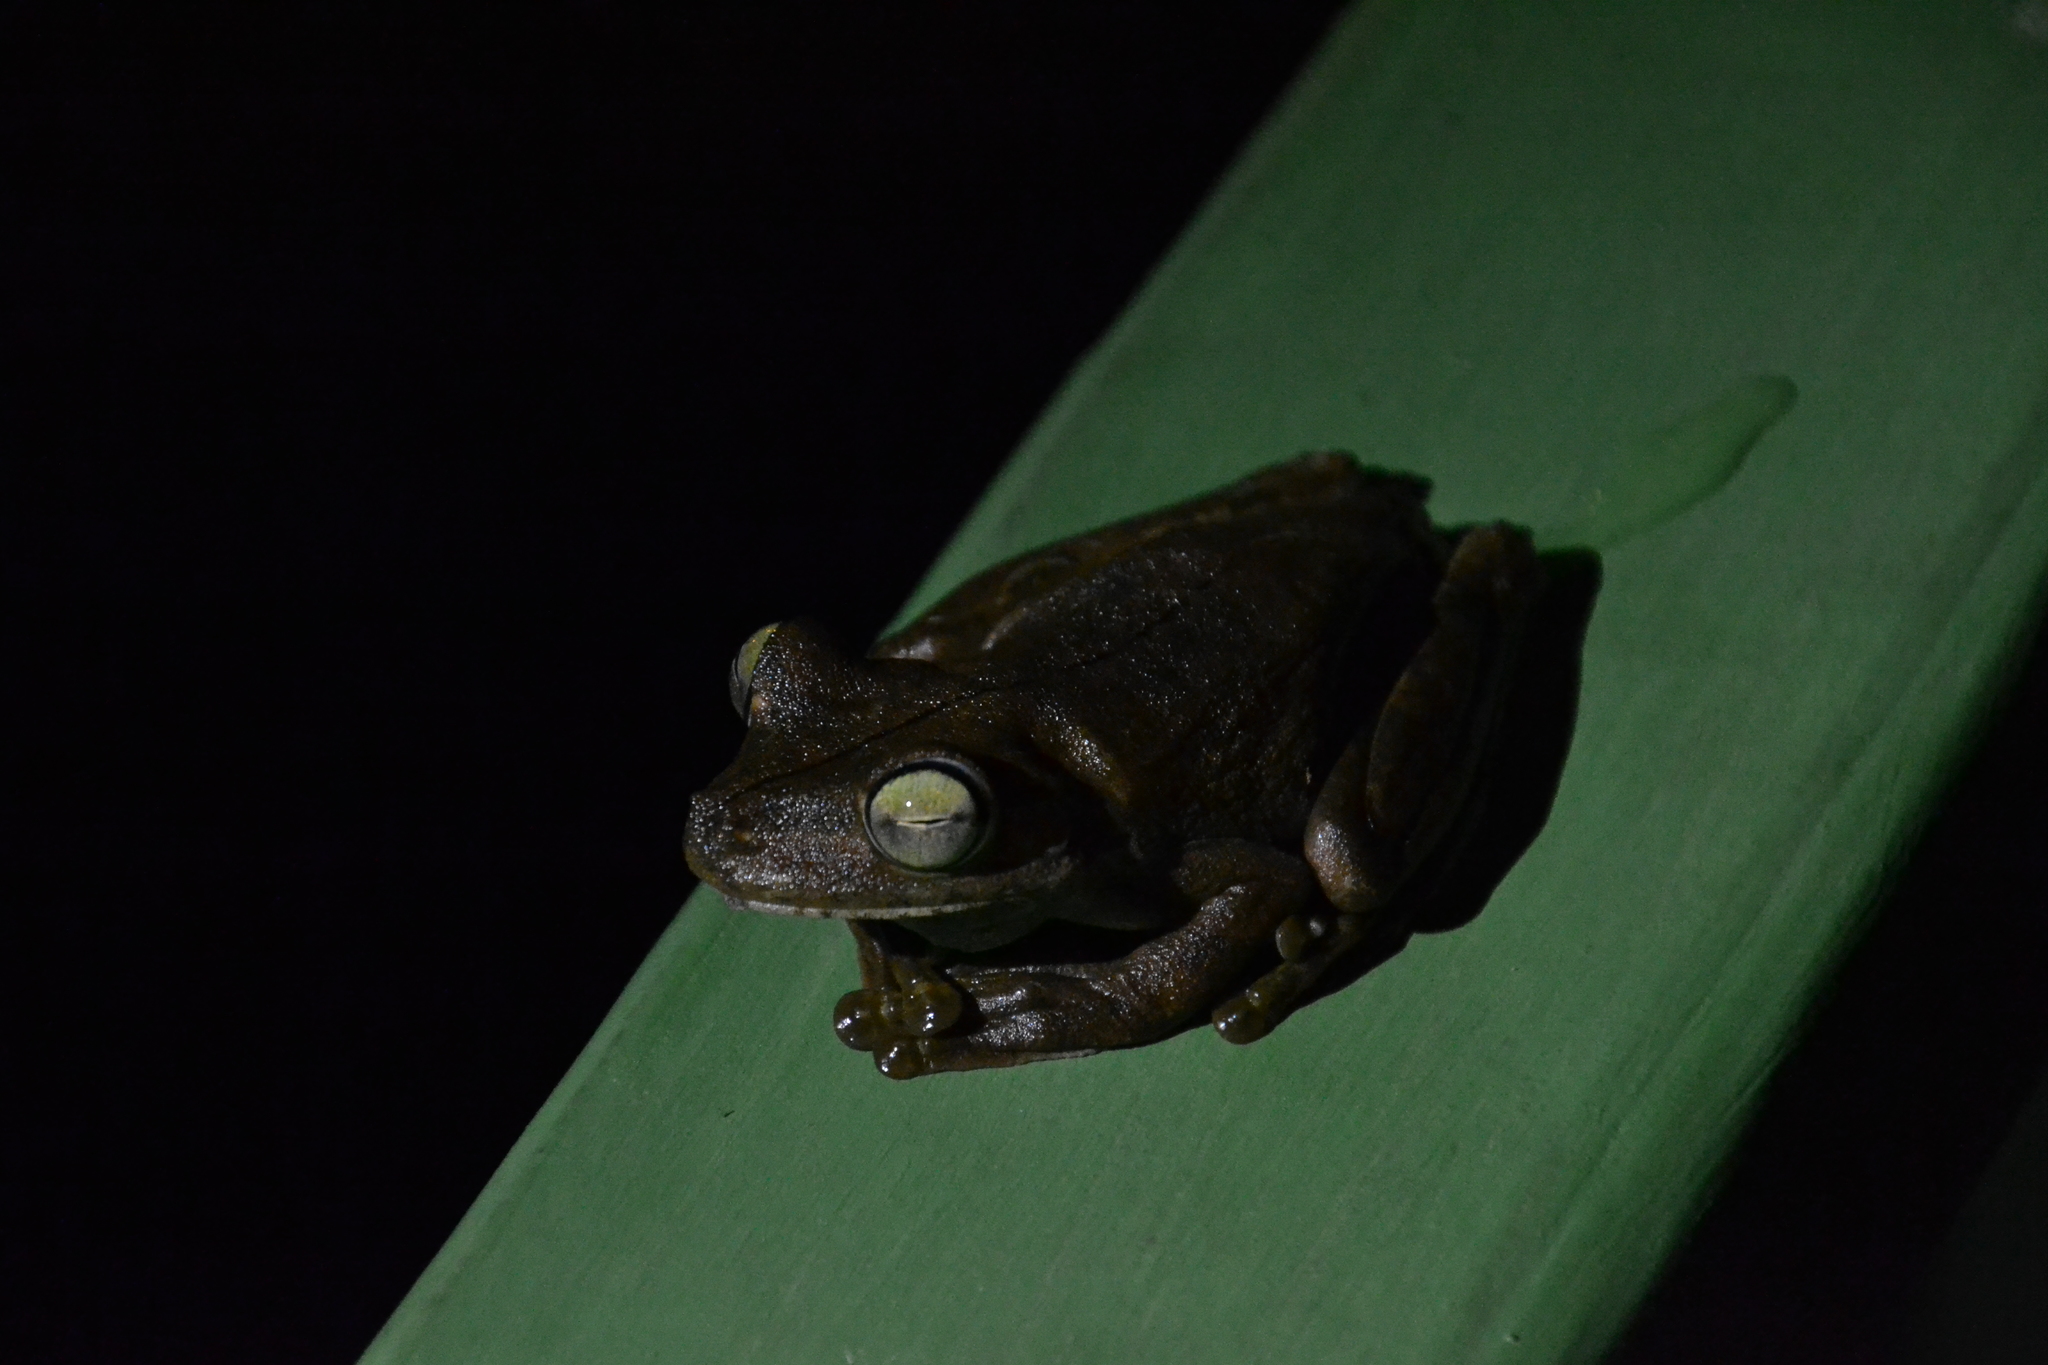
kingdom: Animalia
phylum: Chordata
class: Amphibia
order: Anura
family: Hylidae
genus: Boana
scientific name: Boana rosenbergi
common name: Rosenberg´s gladiator treefrog
